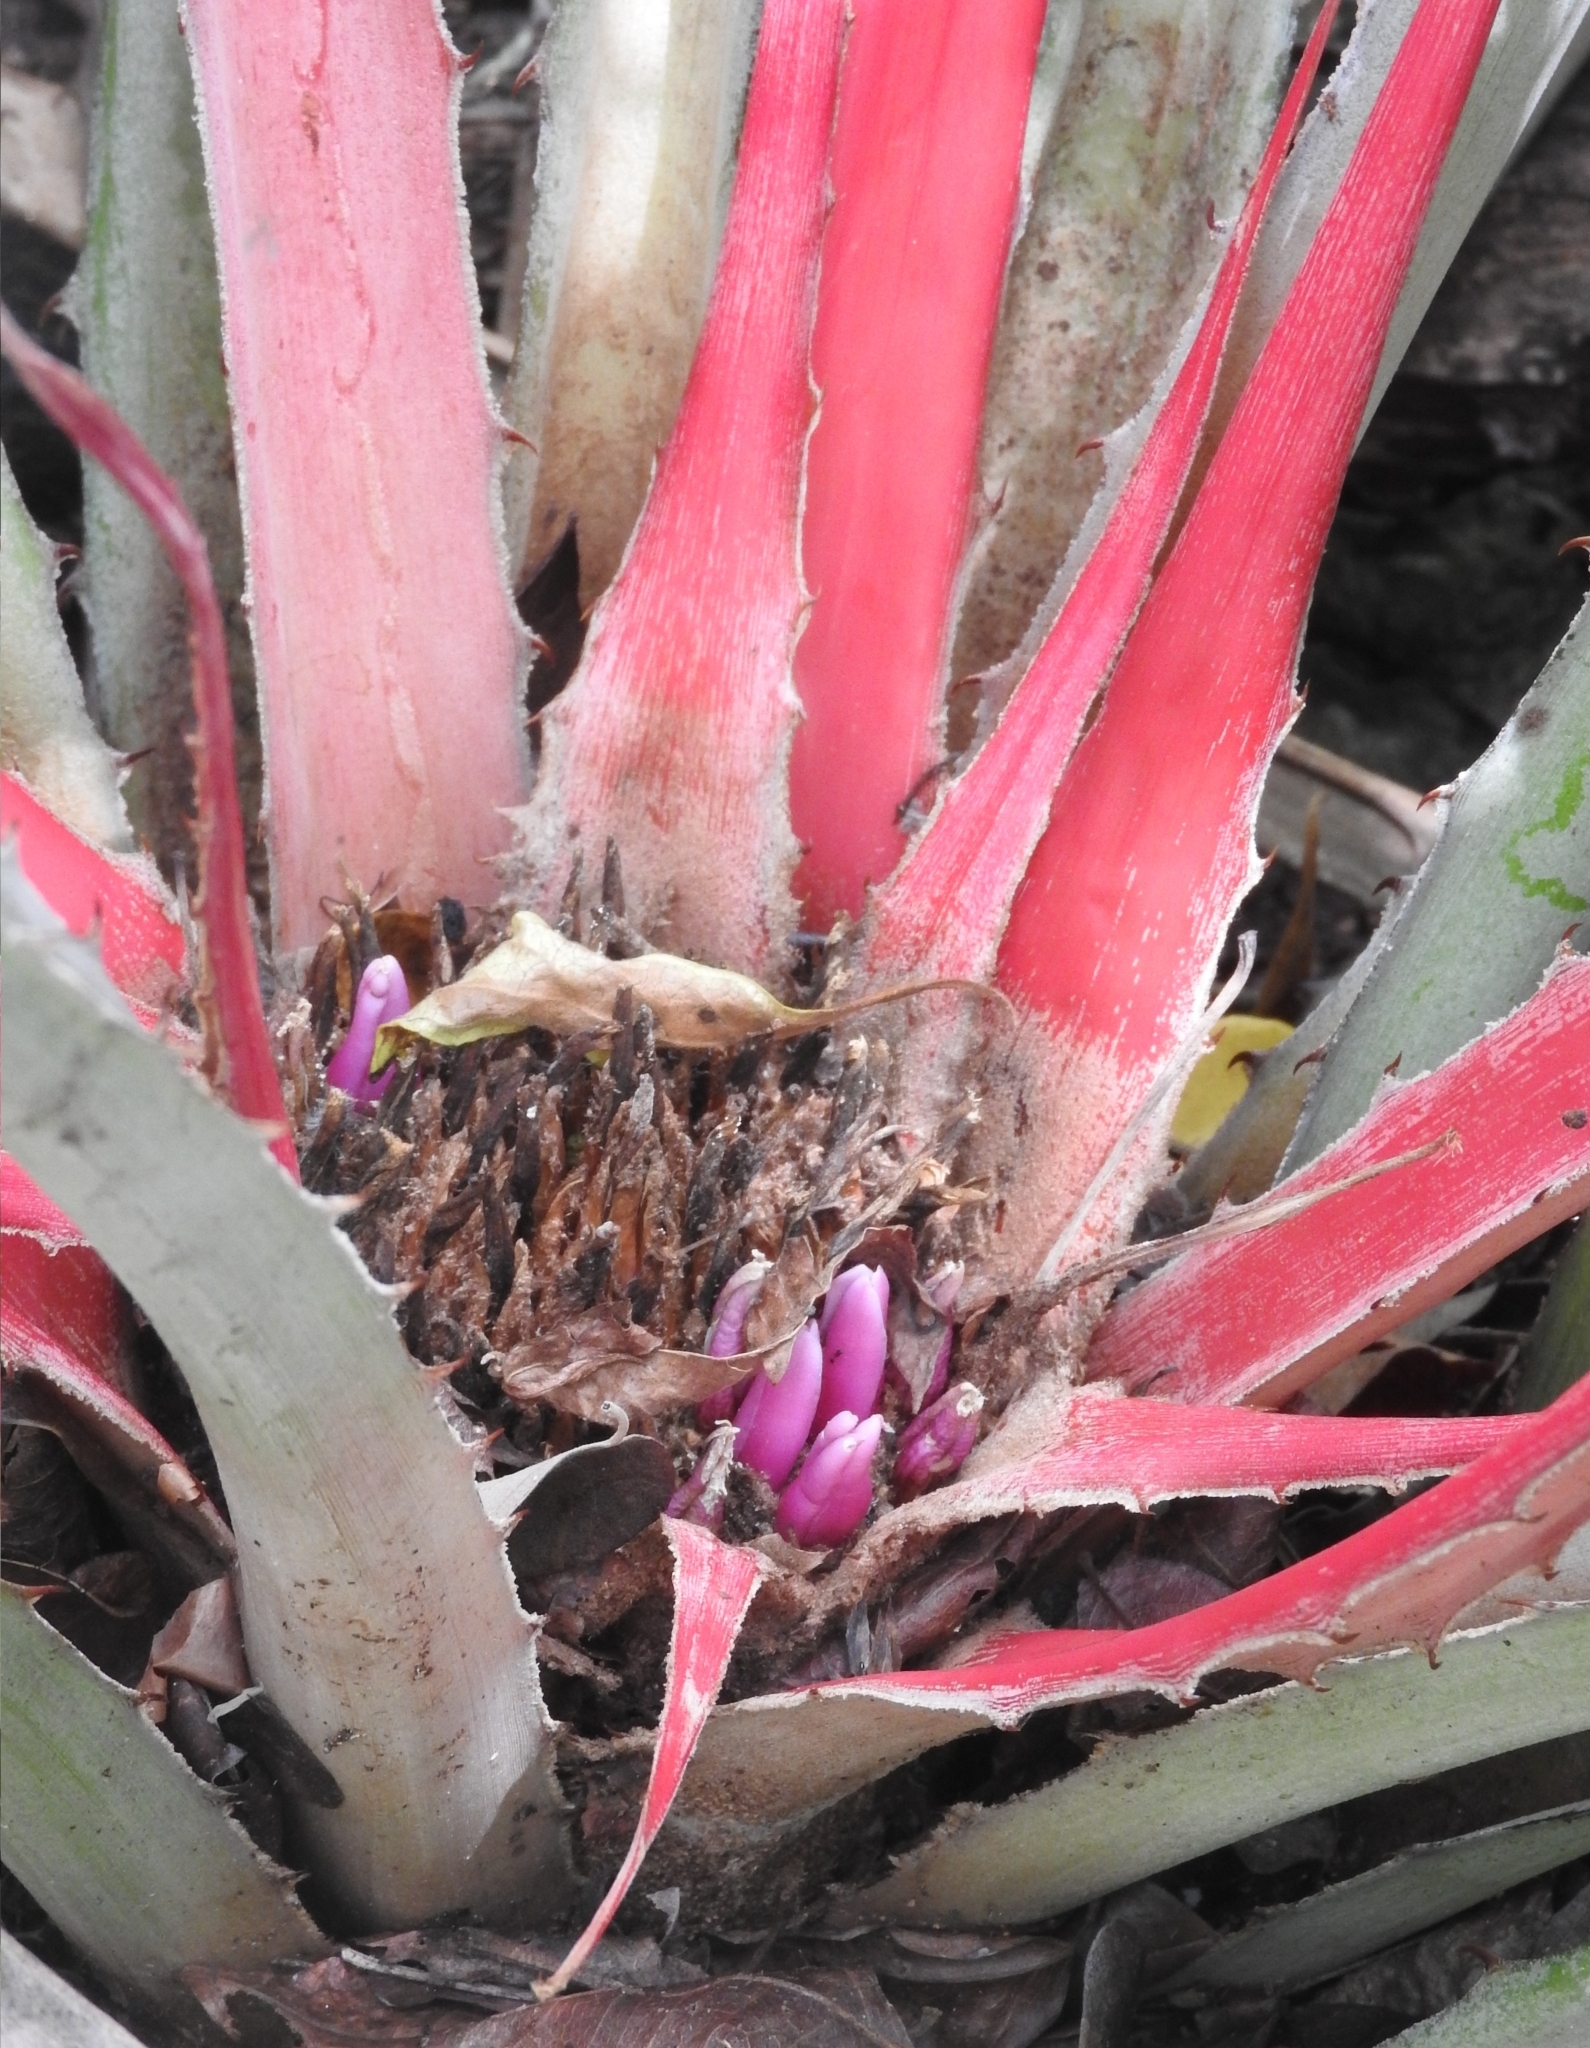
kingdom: Plantae
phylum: Tracheophyta
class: Liliopsida
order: Poales
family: Bromeliaceae
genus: Bromelia
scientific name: Bromelia karatas
